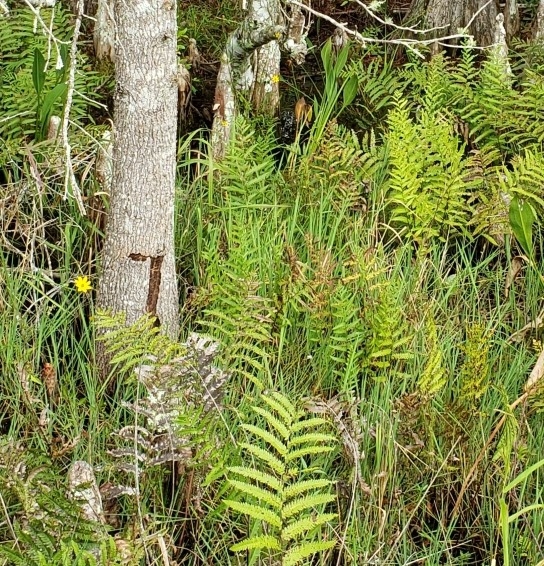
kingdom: Plantae
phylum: Tracheophyta
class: Polypodiopsida
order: Polypodiales
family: Blechnaceae
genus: Anchistea
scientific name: Anchistea virginica
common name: Virginia chain fern
